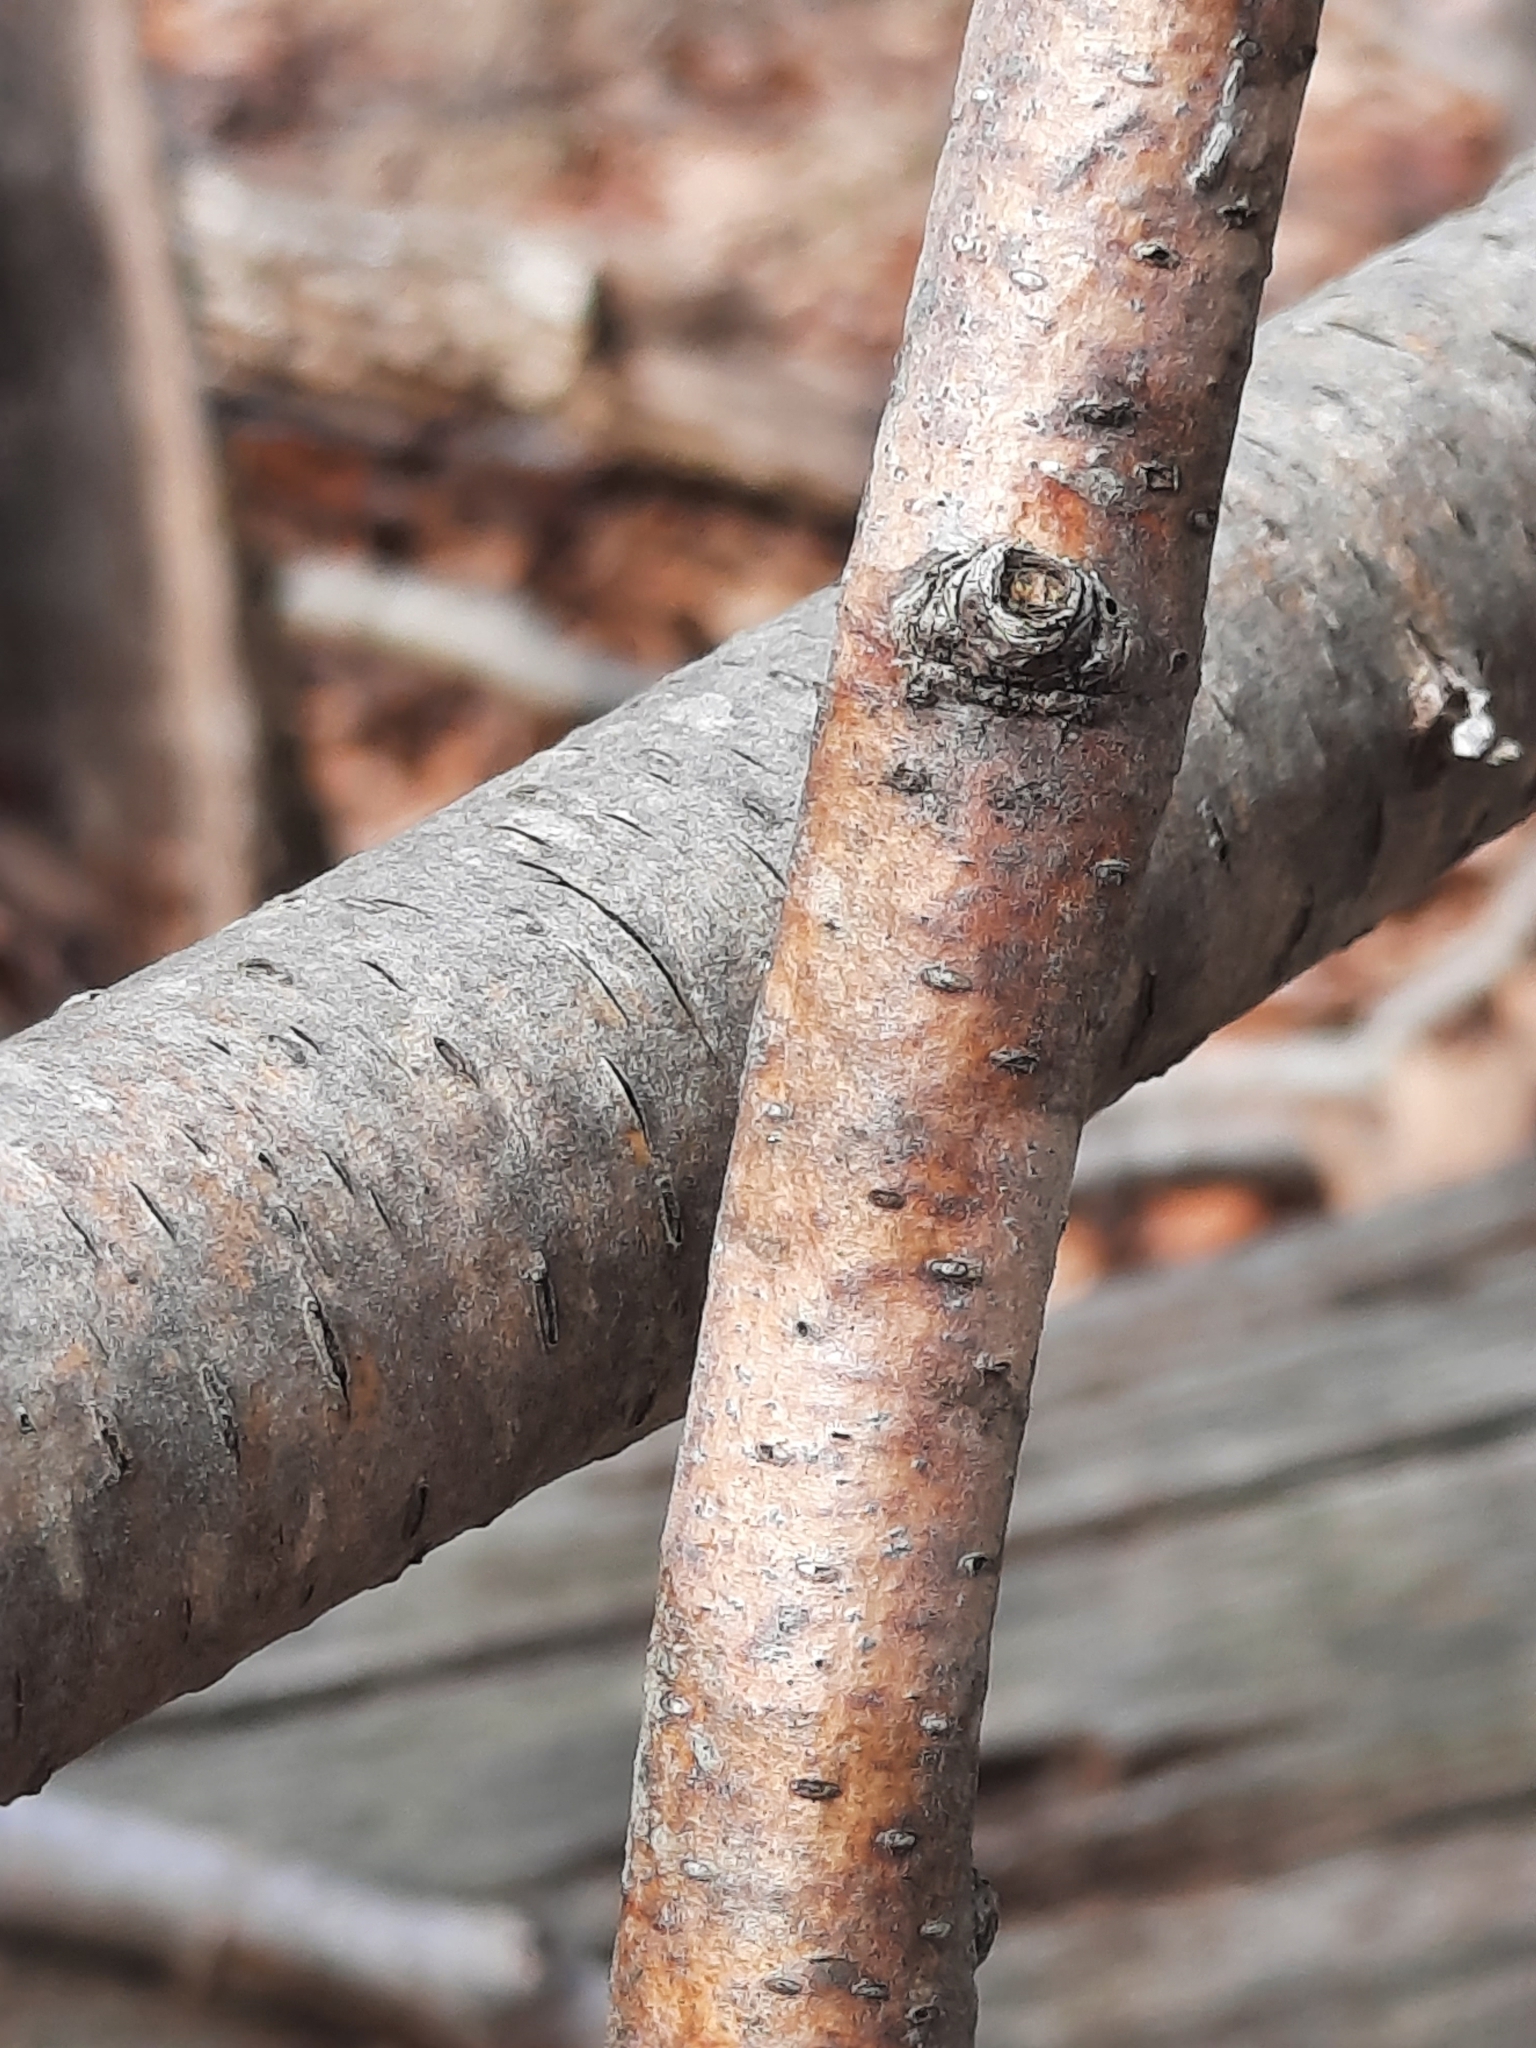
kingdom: Plantae
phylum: Tracheophyta
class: Magnoliopsida
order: Fagales
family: Betulaceae
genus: Betula
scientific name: Betula alleghaniensis
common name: Yellow birch
